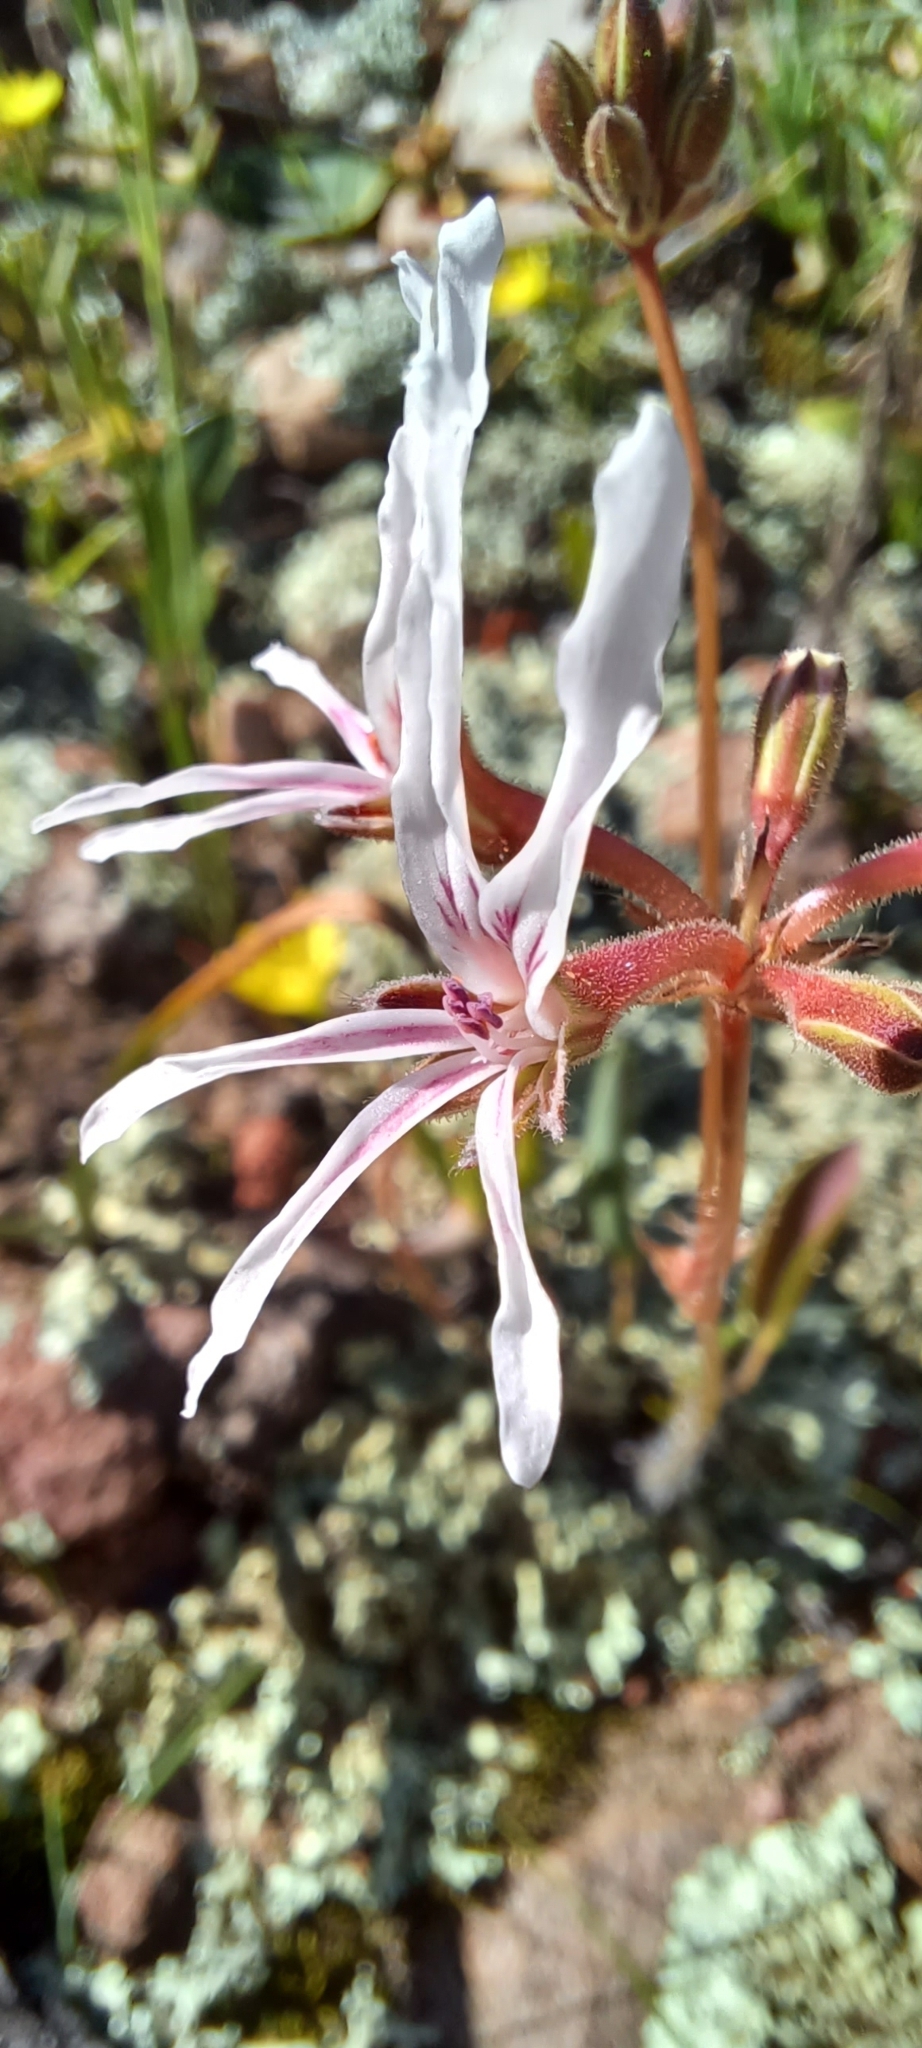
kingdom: Plantae
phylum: Tracheophyta
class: Magnoliopsida
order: Geraniales
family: Geraniaceae
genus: Pelargonium
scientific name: Pelargonium undulatum
